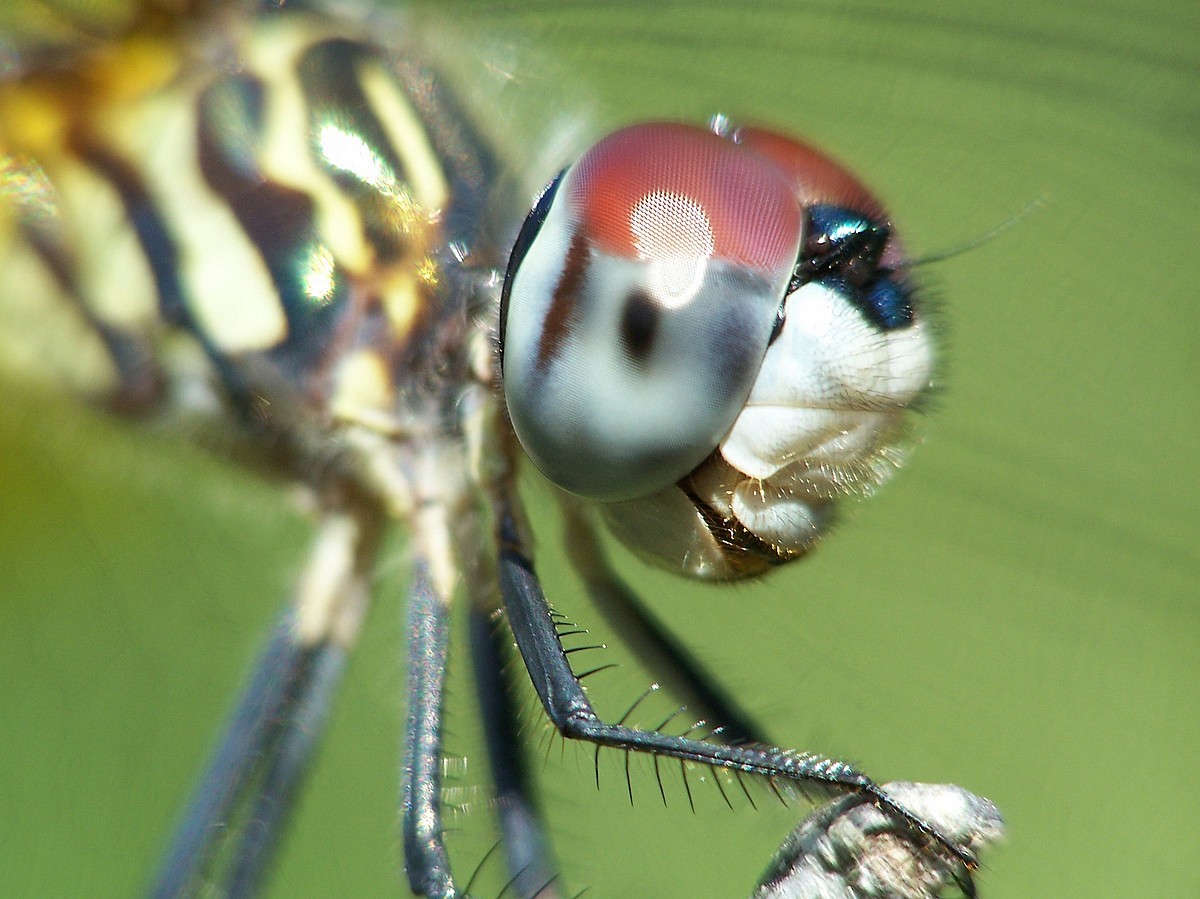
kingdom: Animalia
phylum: Arthropoda
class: Insecta
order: Odonata
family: Libellulidae
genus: Pachydiplax
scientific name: Pachydiplax longipennis
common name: Blue dasher
